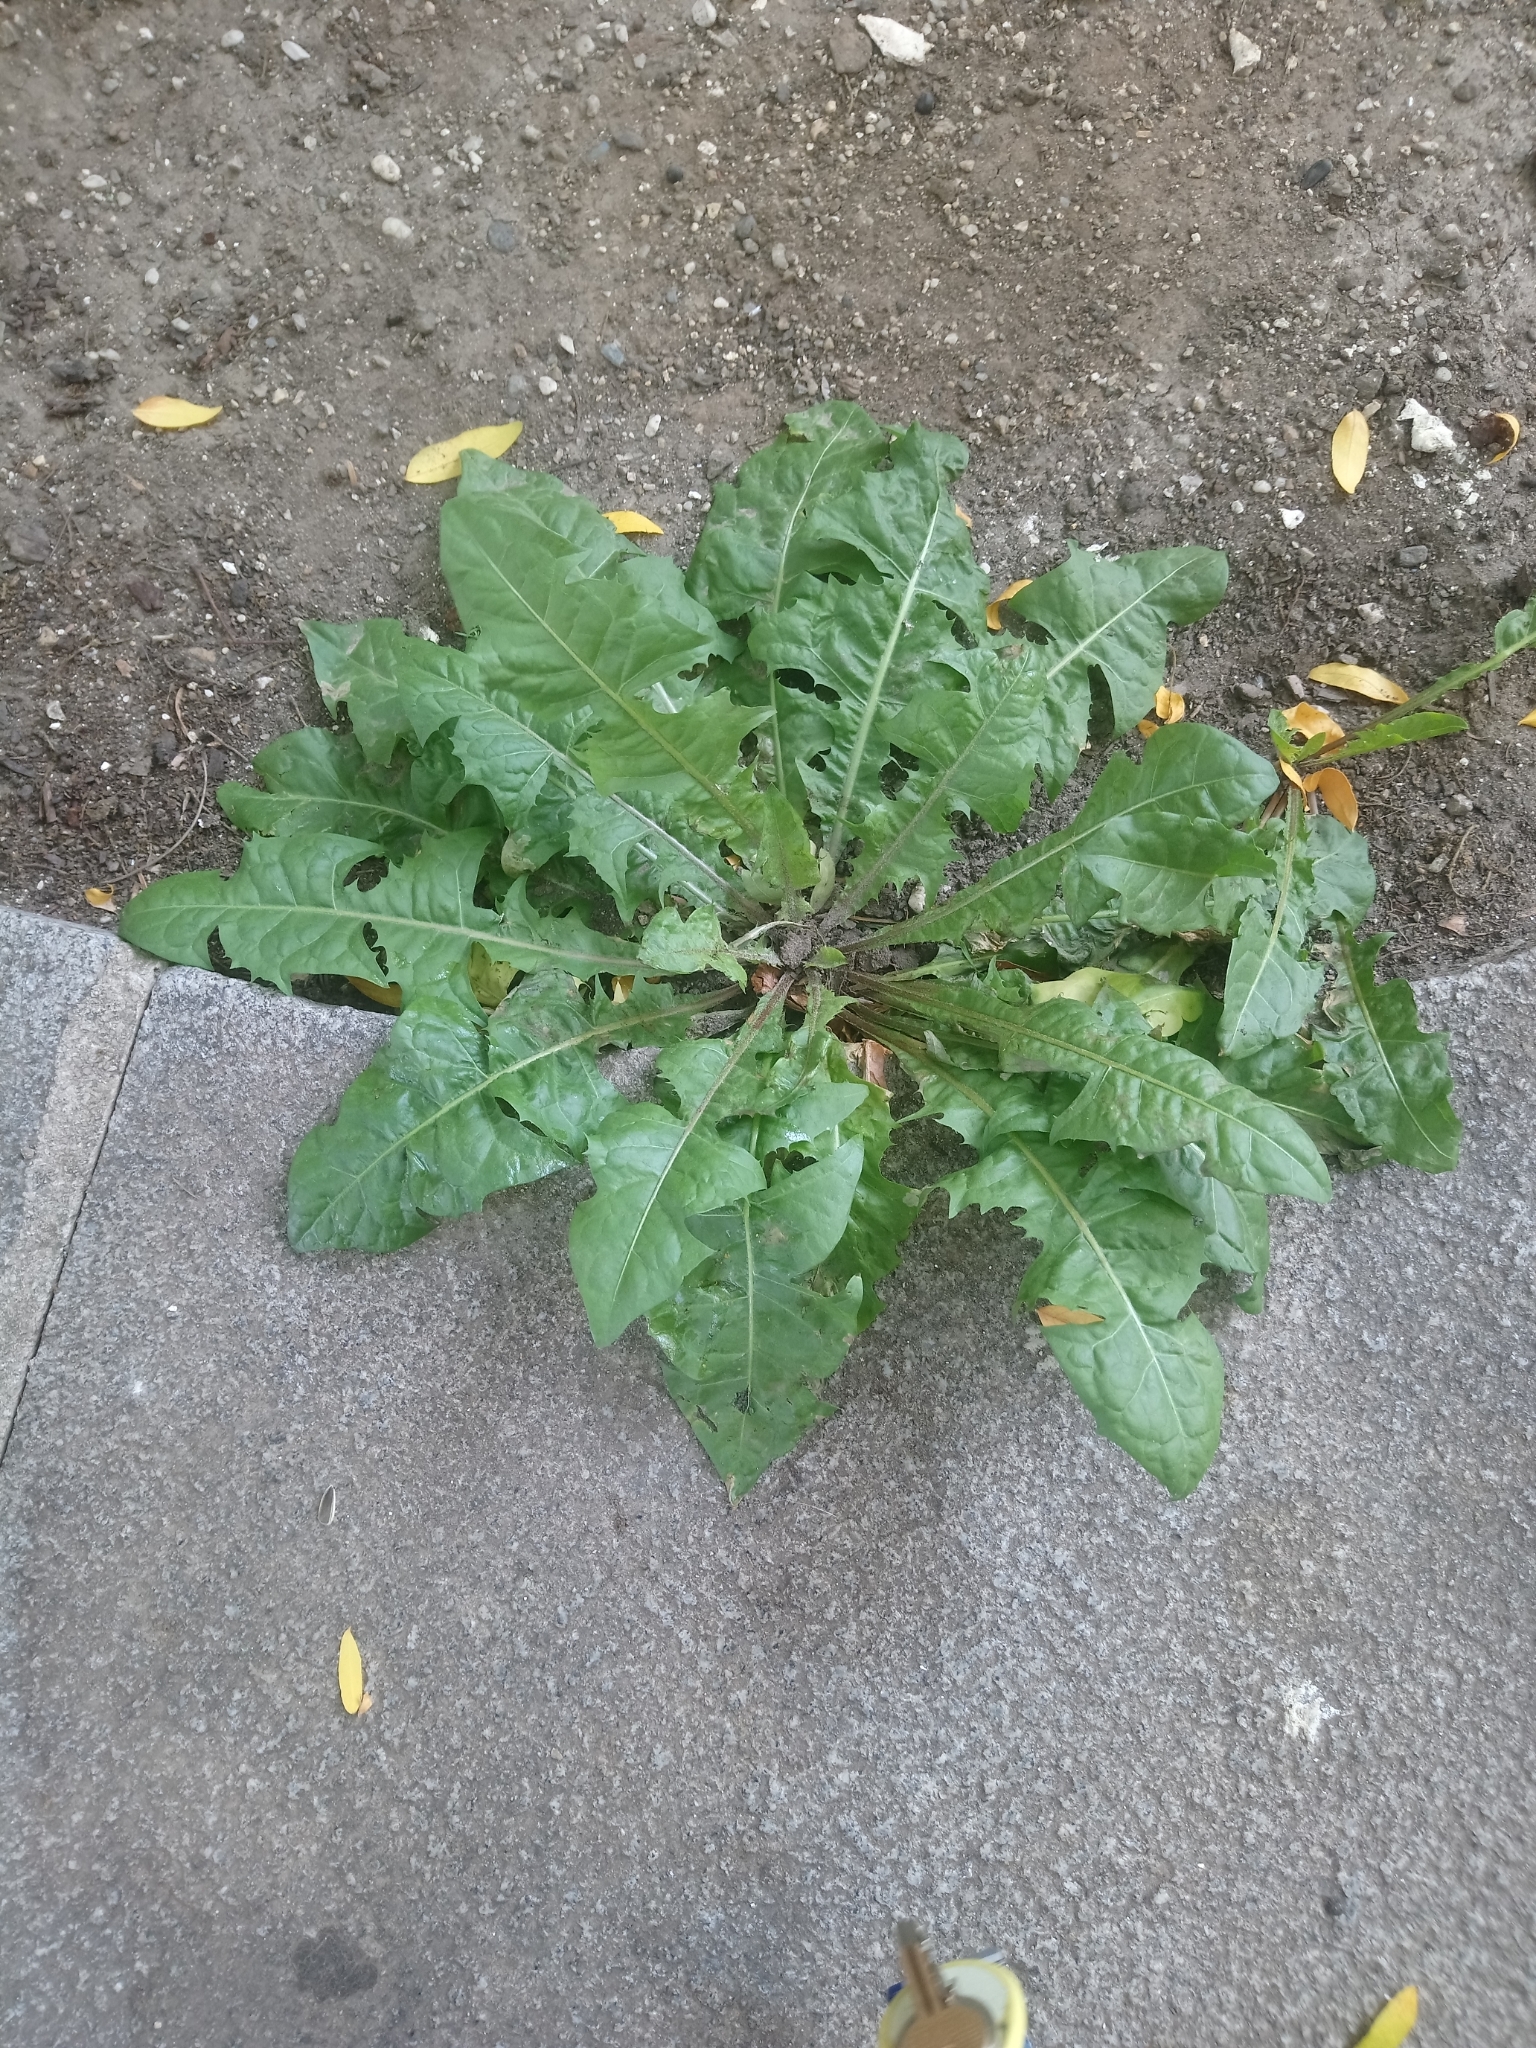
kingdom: Plantae
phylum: Tracheophyta
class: Magnoliopsida
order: Asterales
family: Asteraceae
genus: Taraxacum
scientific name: Taraxacum officinale
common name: Common dandelion
